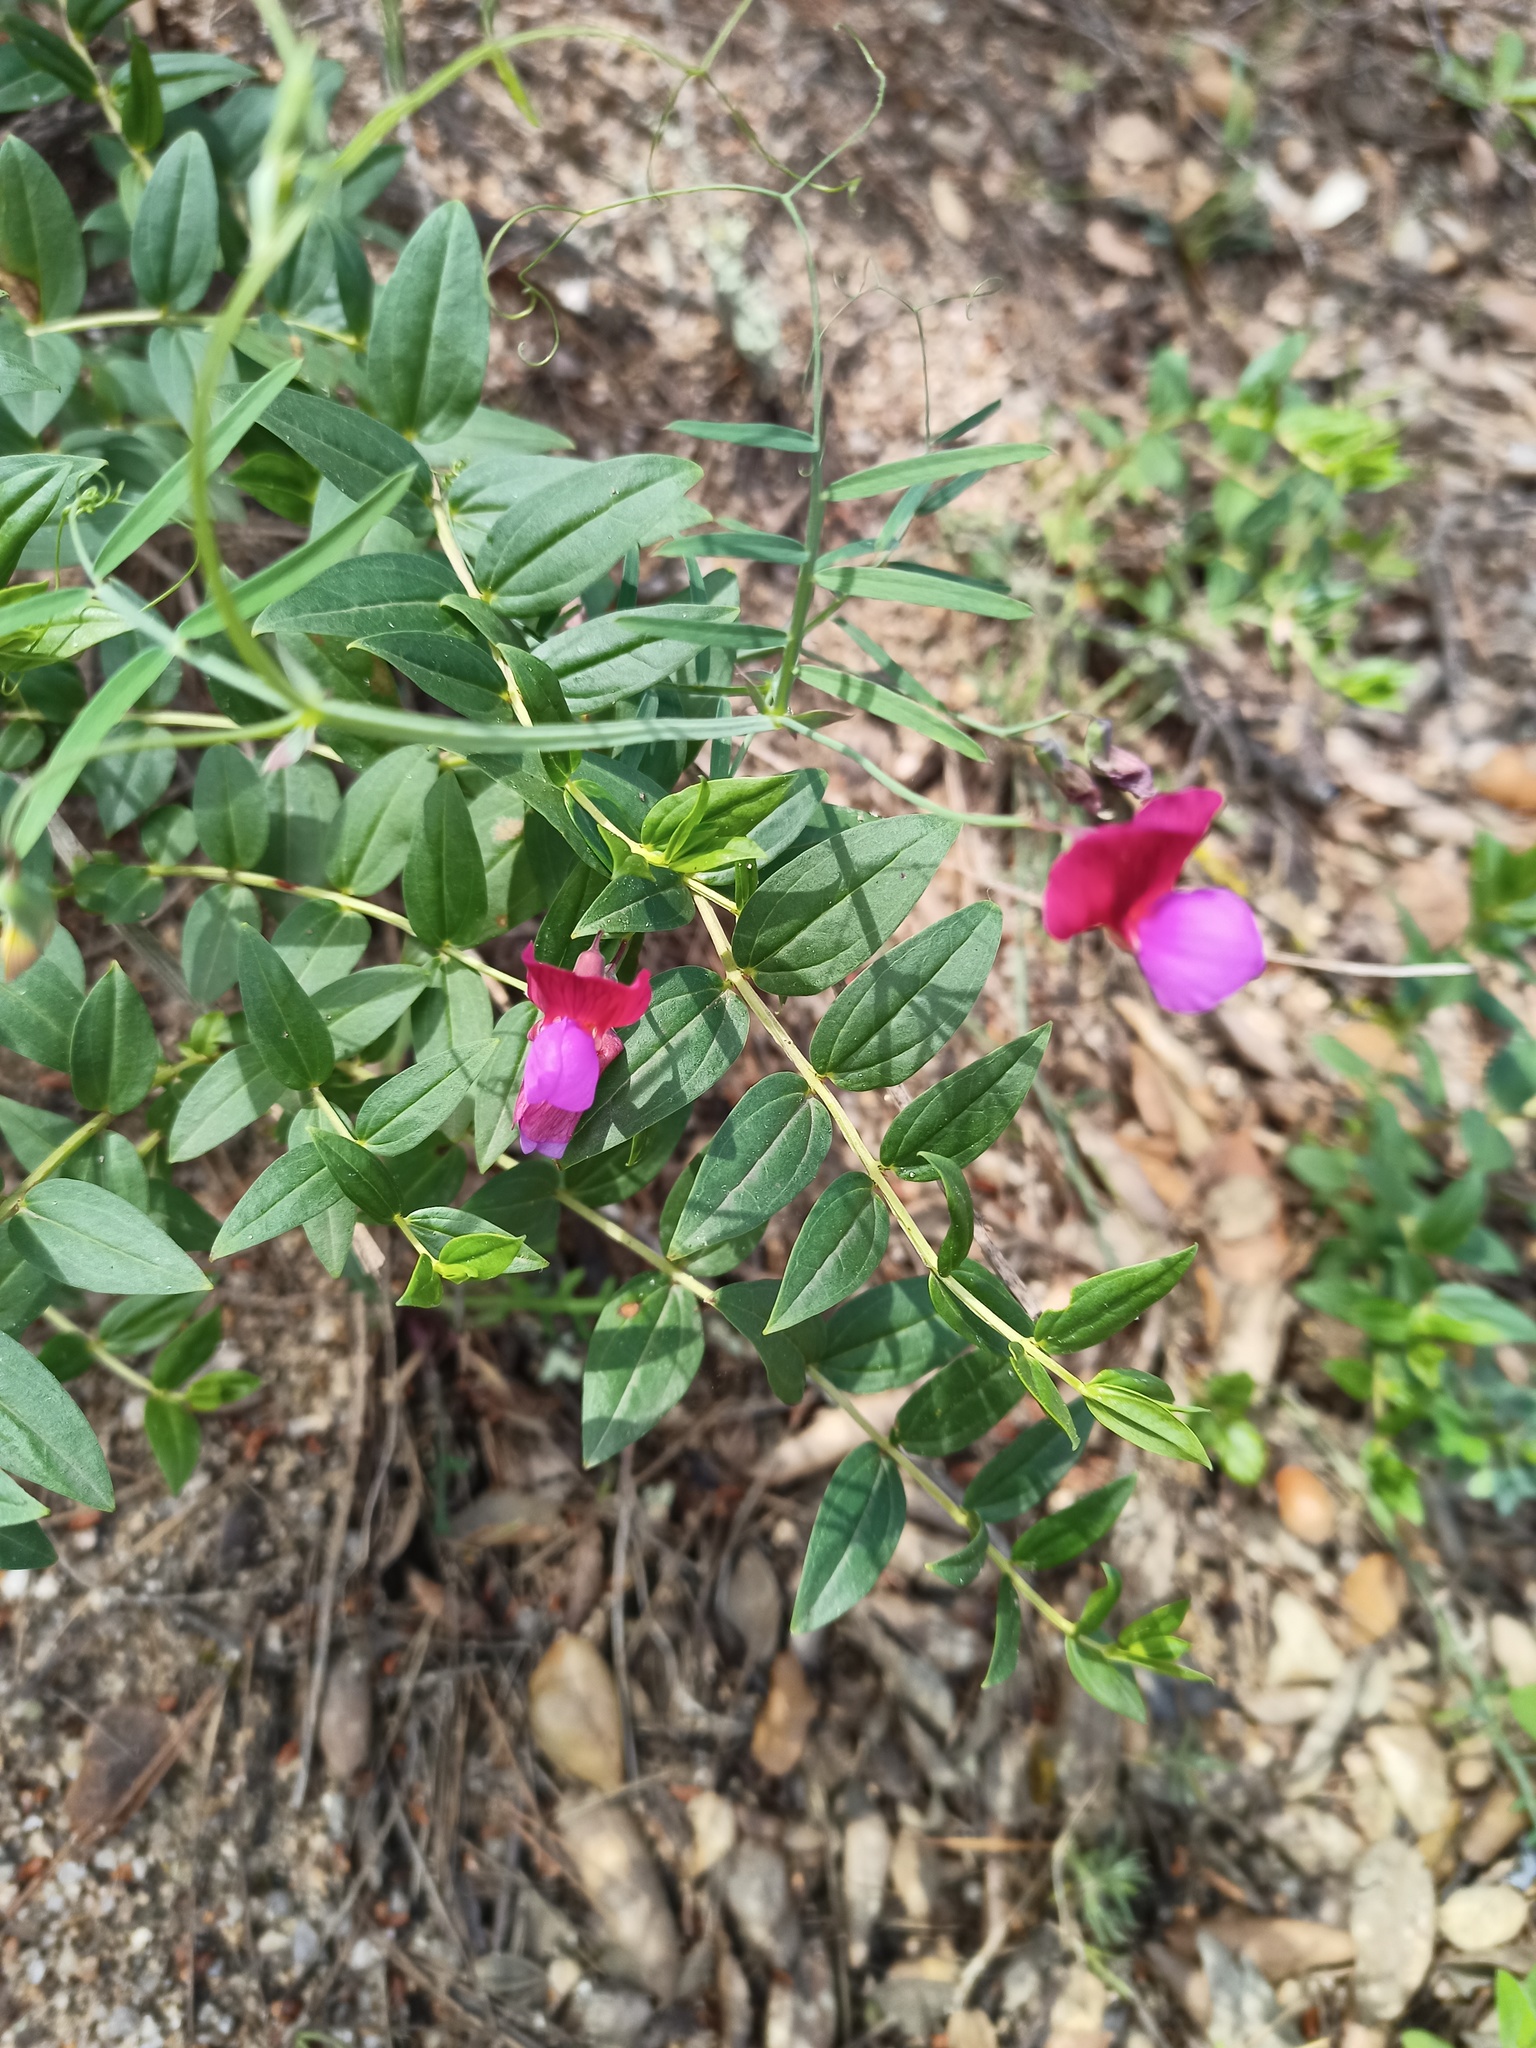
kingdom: Plantae
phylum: Tracheophyta
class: Magnoliopsida
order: Fabales
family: Fabaceae
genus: Lathyrus
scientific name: Lathyrus clymenum
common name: Spanish vetchling
